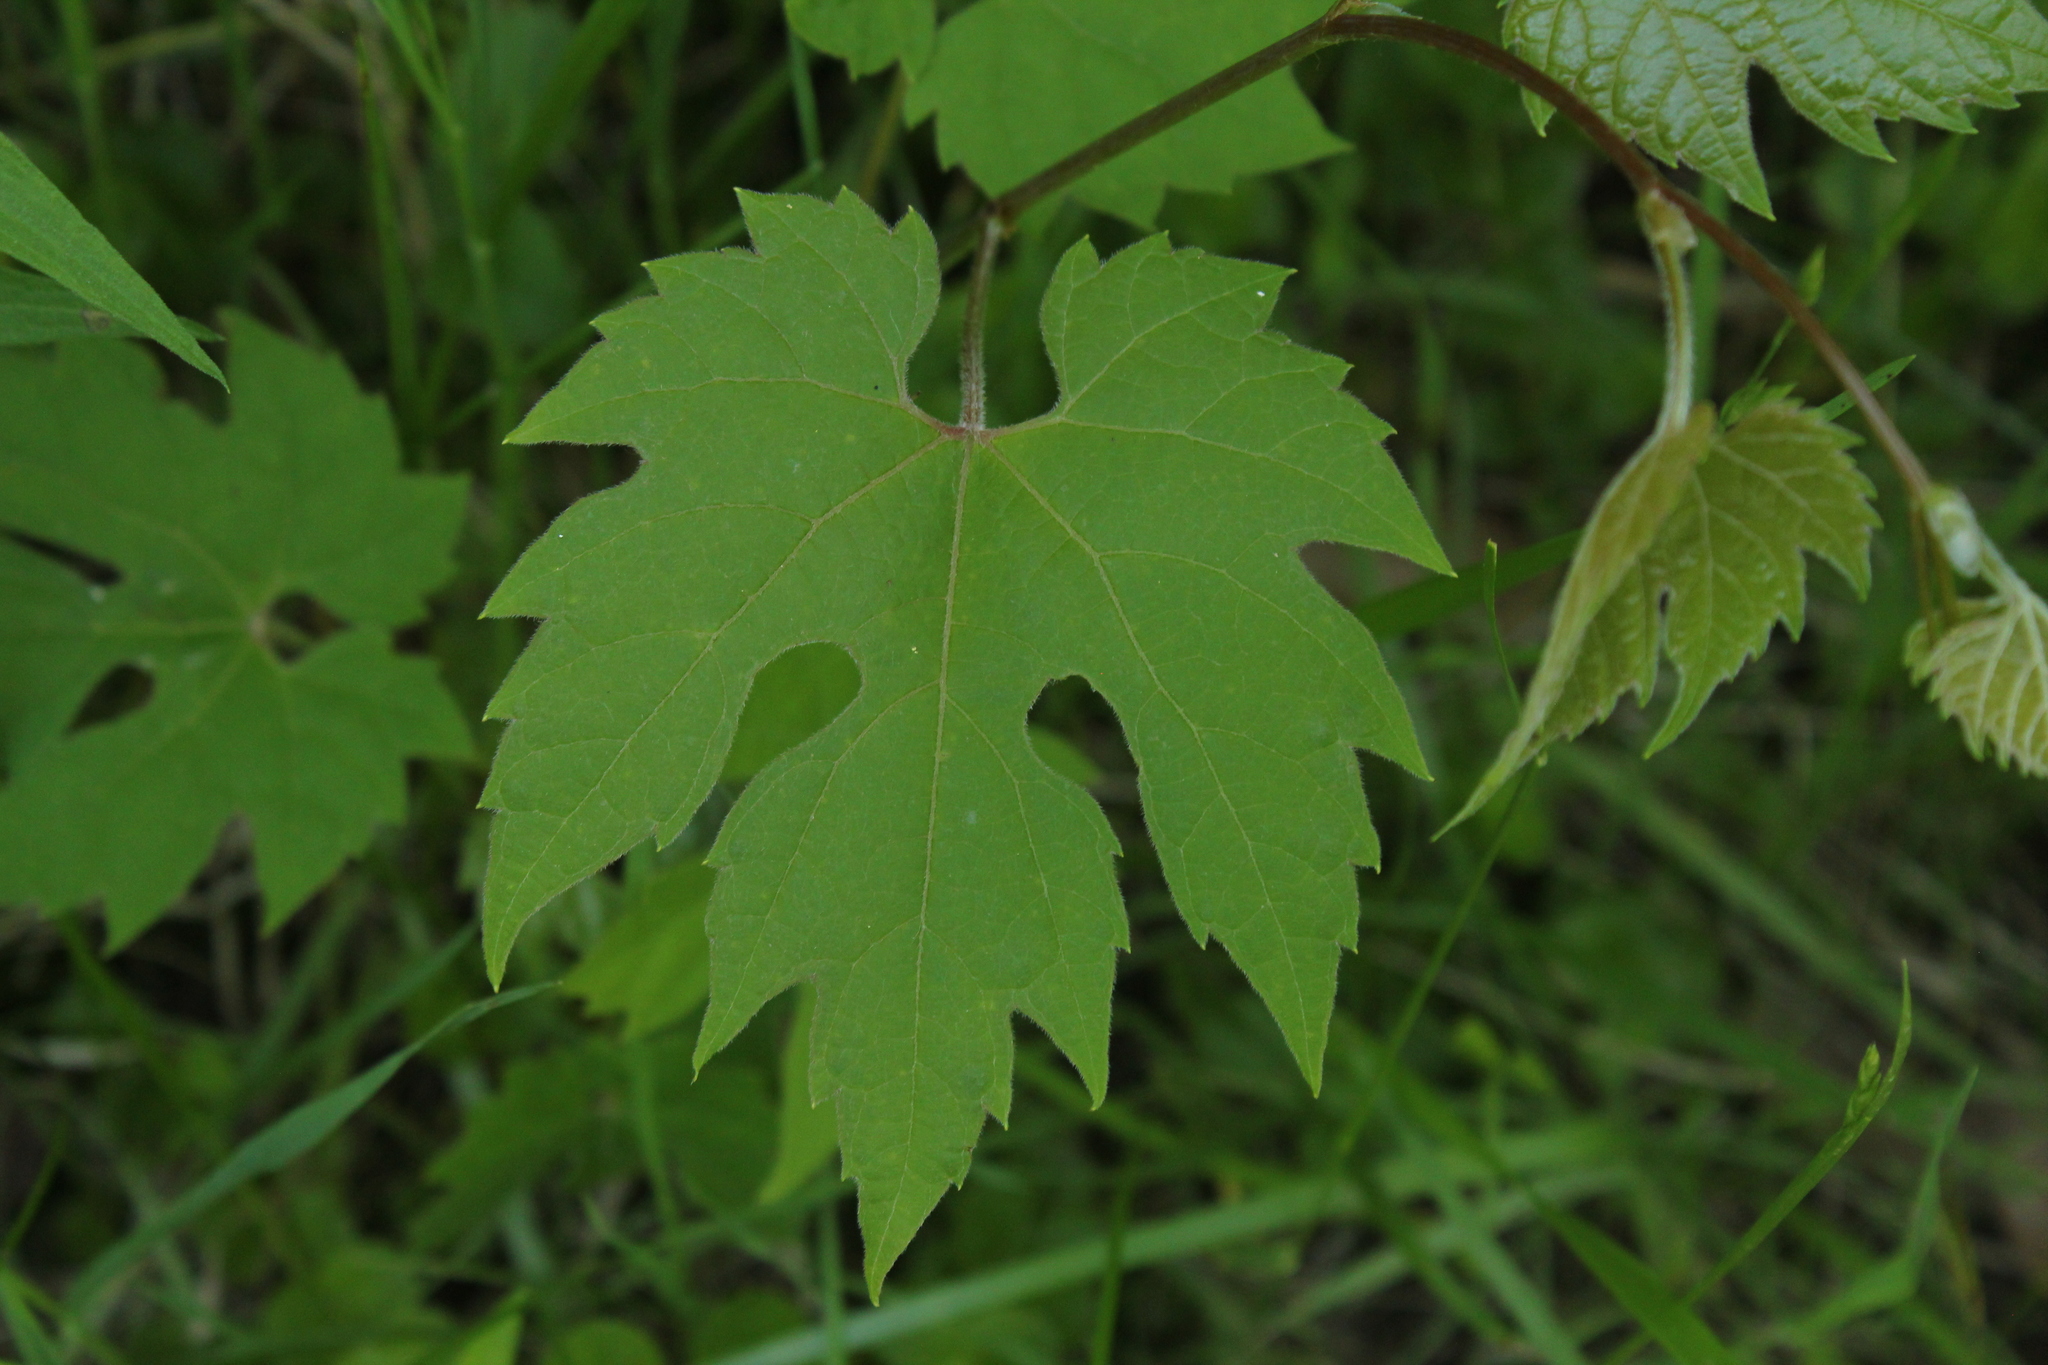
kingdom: Plantae
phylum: Tracheophyta
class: Magnoliopsida
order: Vitales
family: Vitaceae
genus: Vitis
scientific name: Vitis riparia
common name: Frost grape
